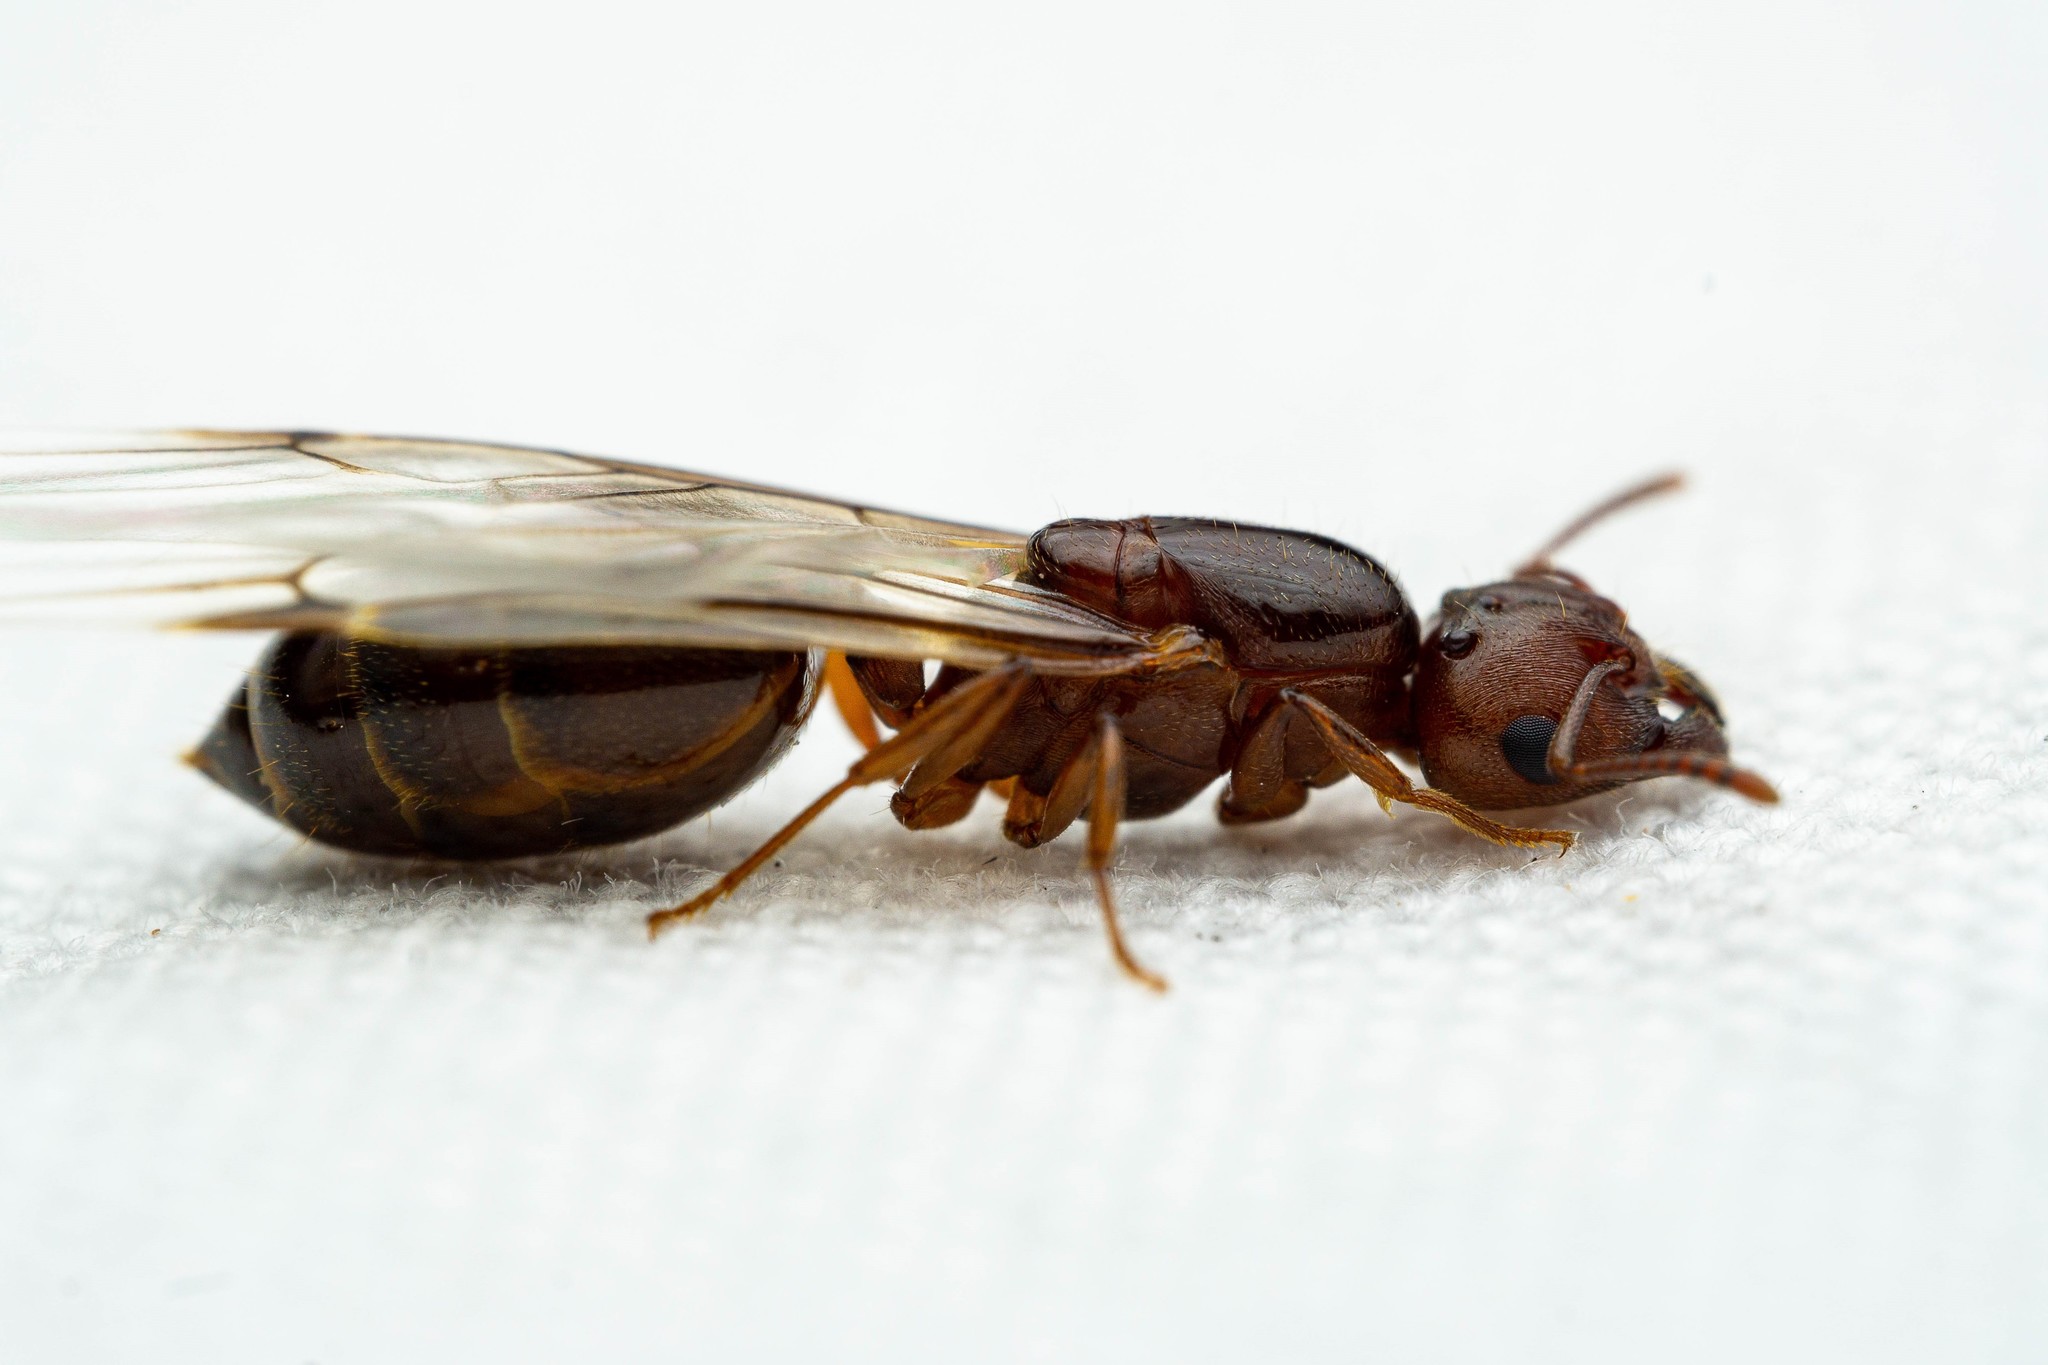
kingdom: Animalia
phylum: Arthropoda
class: Insecta
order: Hymenoptera
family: Formicidae
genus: Crematogaster
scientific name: Crematogaster
